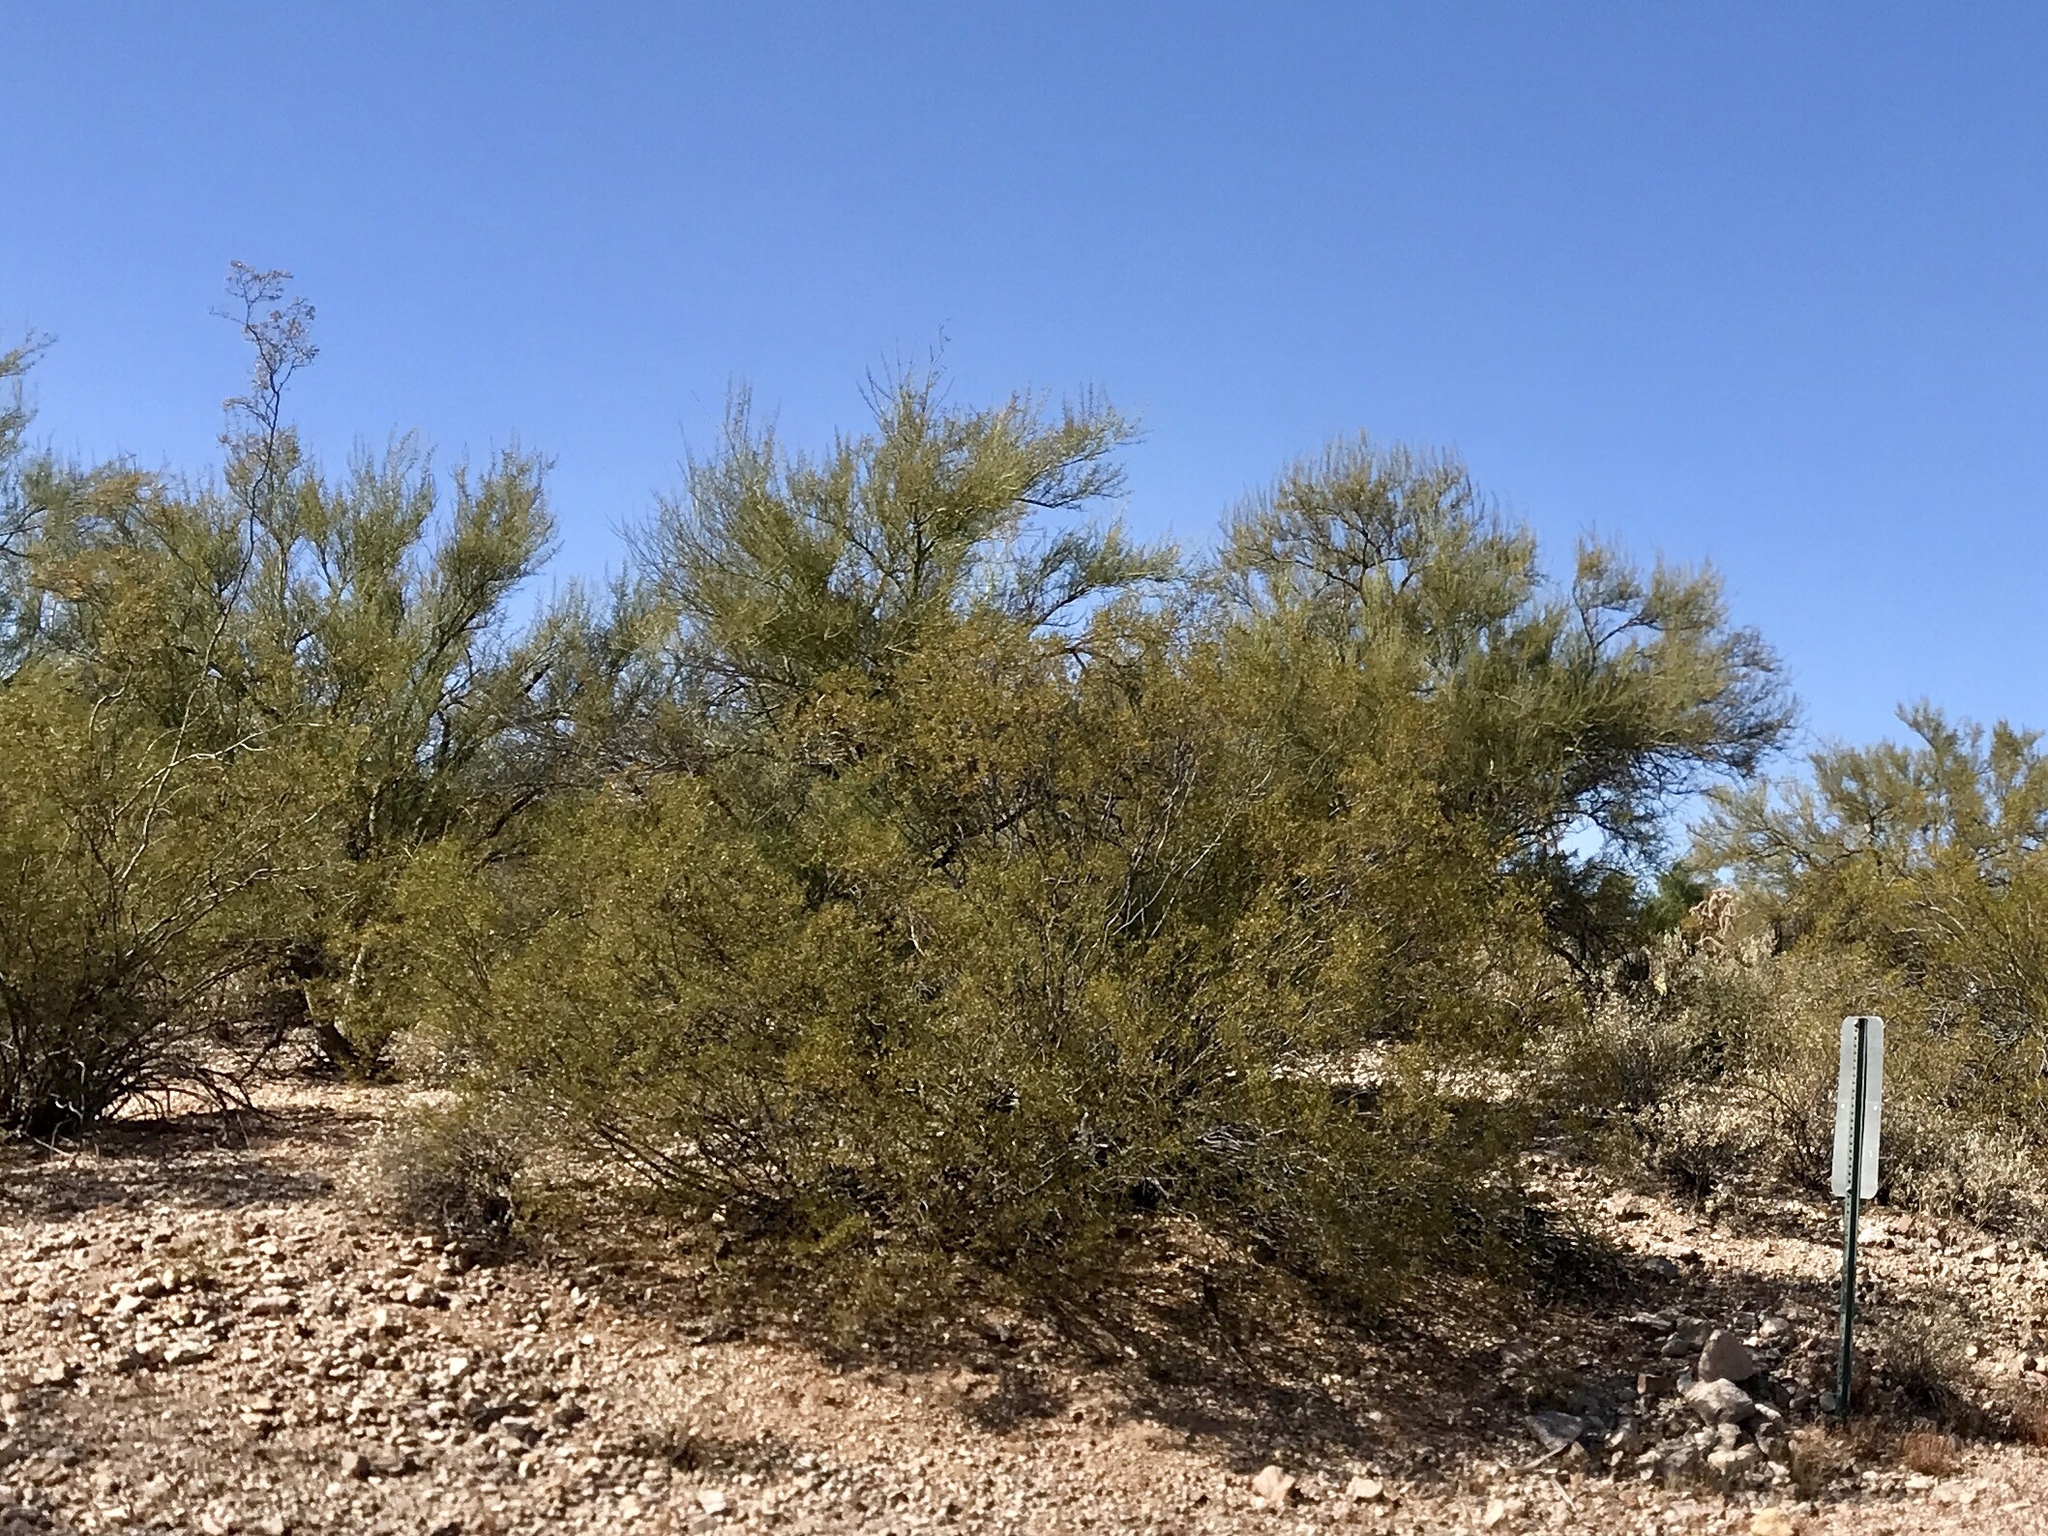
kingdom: Plantae
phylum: Tracheophyta
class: Magnoliopsida
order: Zygophyllales
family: Zygophyllaceae
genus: Larrea
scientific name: Larrea tridentata
